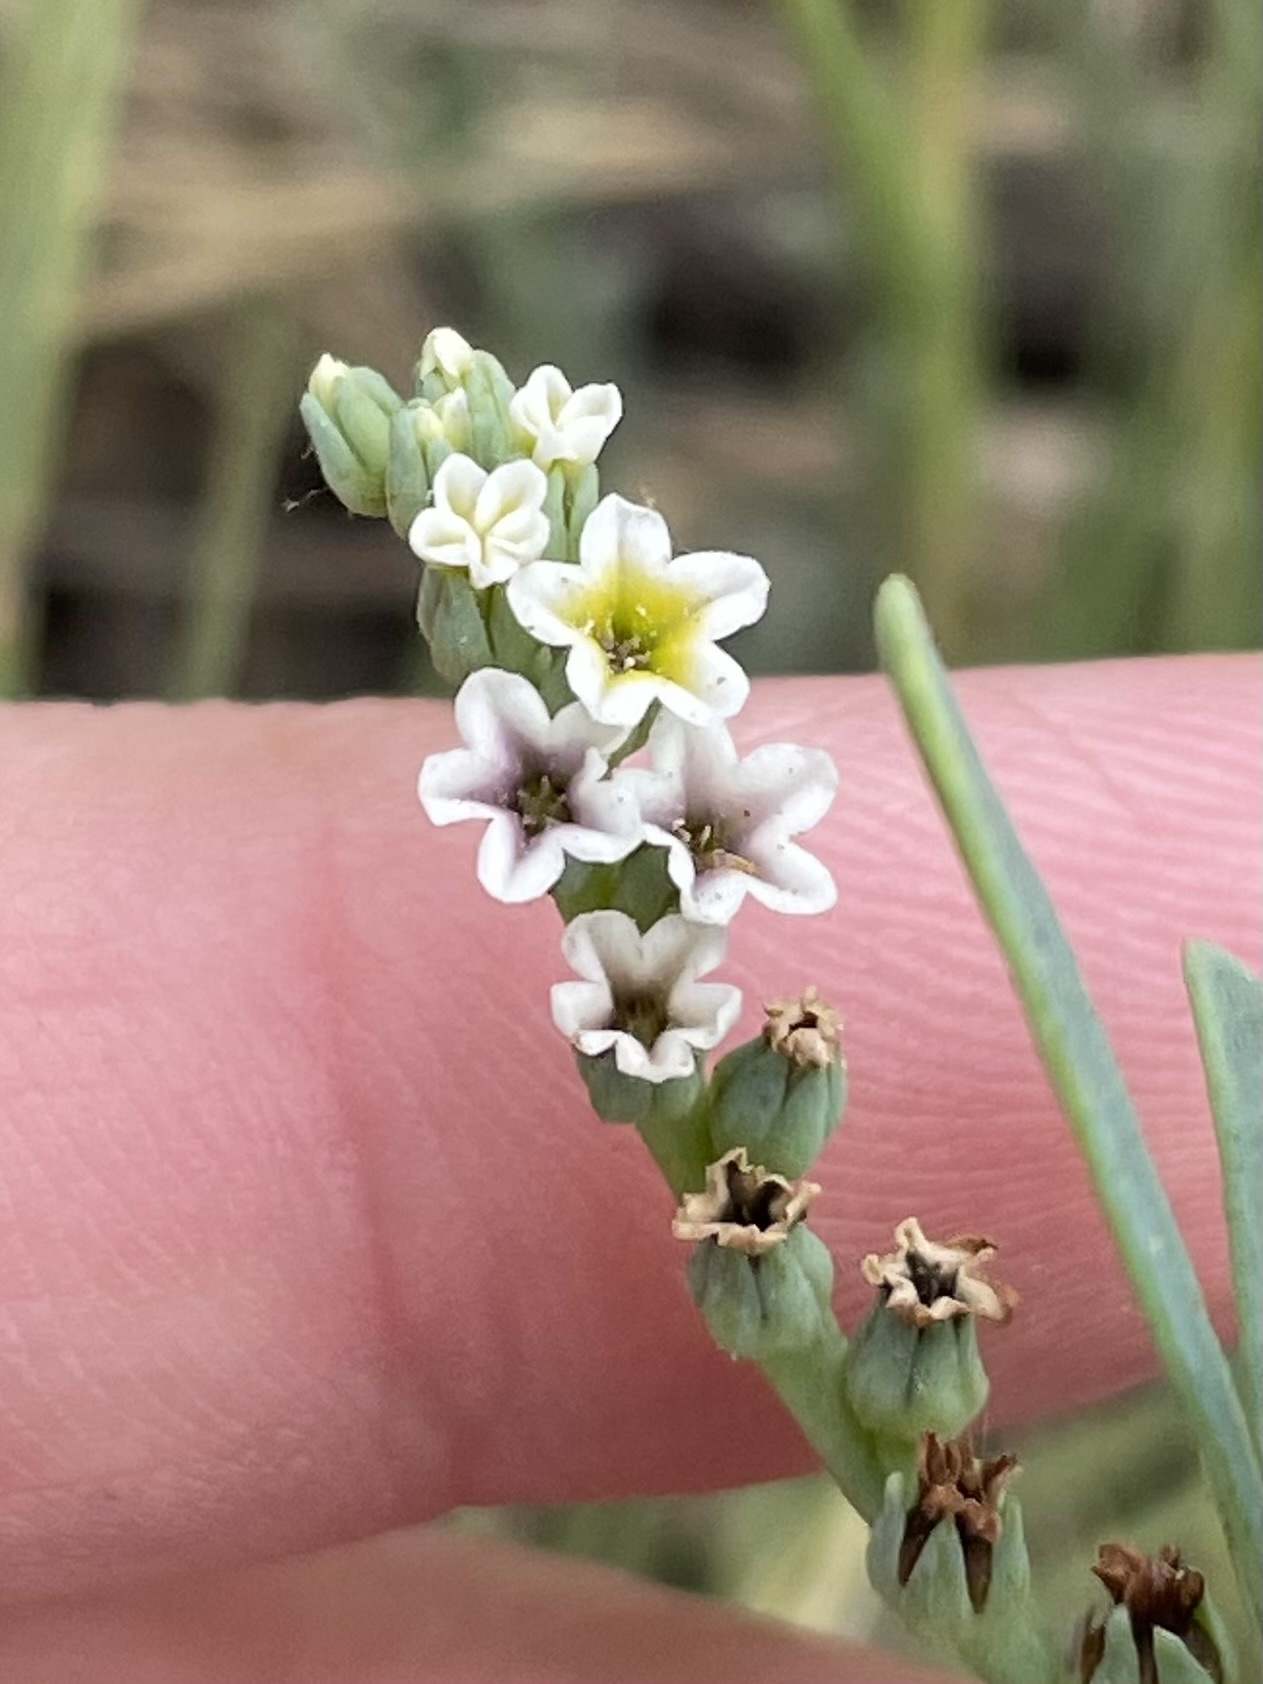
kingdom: Plantae
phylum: Tracheophyta
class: Magnoliopsida
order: Boraginales
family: Heliotropiaceae
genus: Heliotropium
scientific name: Heliotropium curassavicum
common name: Seaside heliotrope
